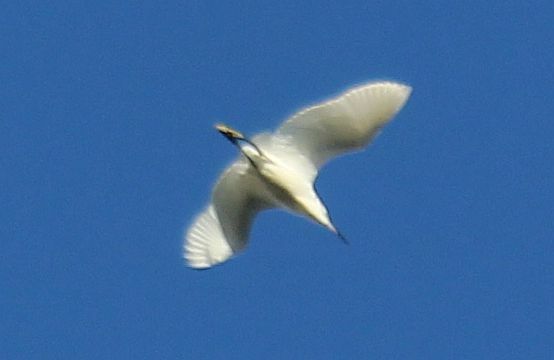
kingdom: Animalia
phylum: Chordata
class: Aves
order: Pelecaniformes
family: Ardeidae
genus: Egretta
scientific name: Egretta garzetta
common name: Little egret
